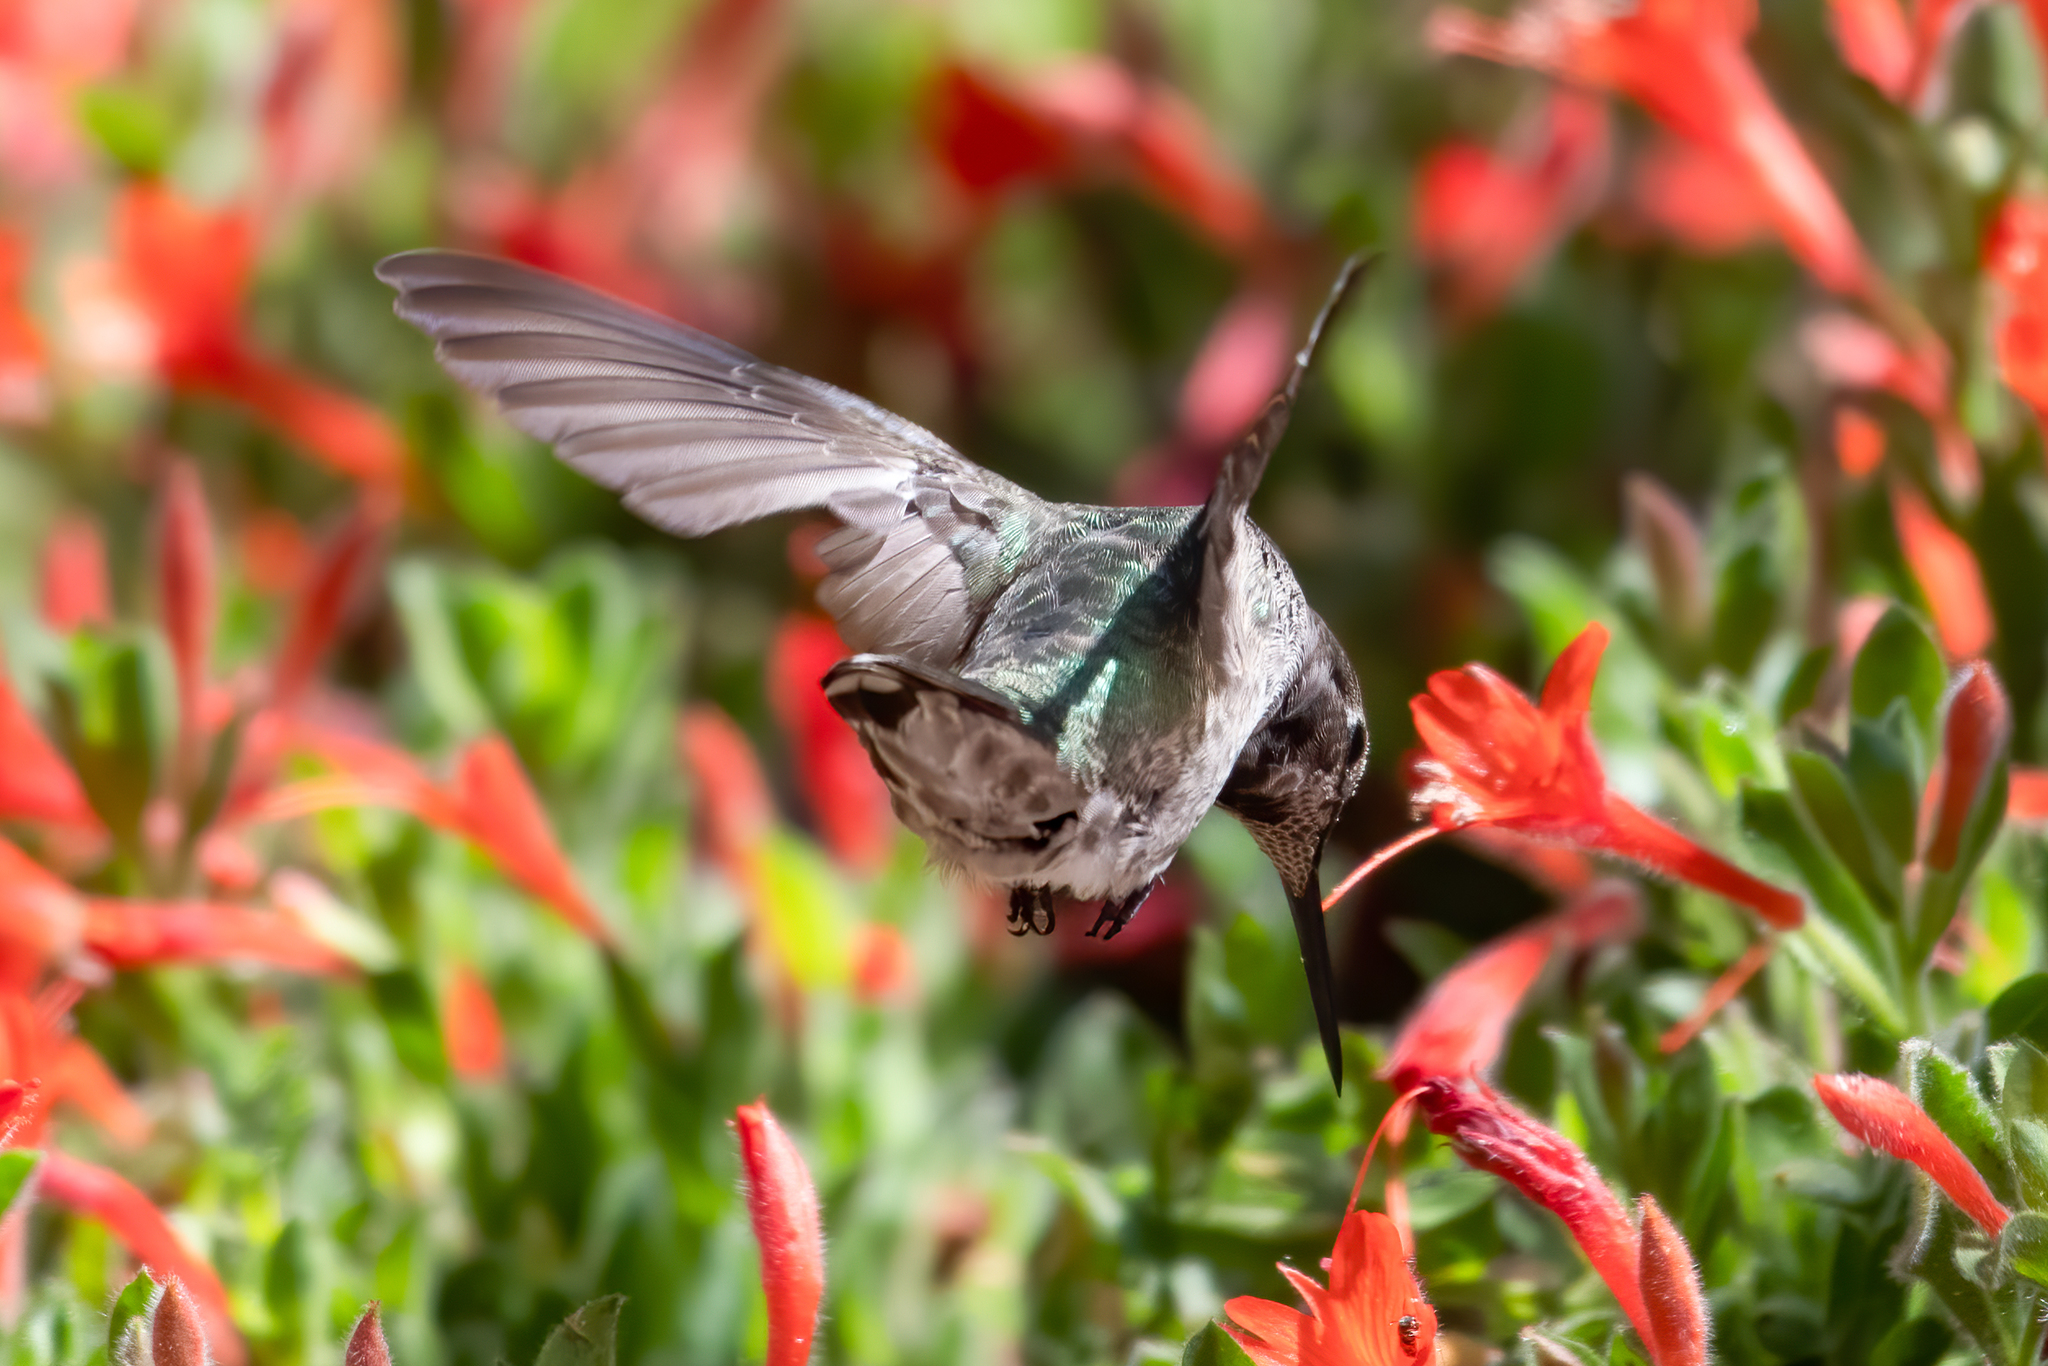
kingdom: Animalia
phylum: Chordata
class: Aves
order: Apodiformes
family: Trochilidae
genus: Calypte
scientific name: Calypte anna
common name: Anna's hummingbird
